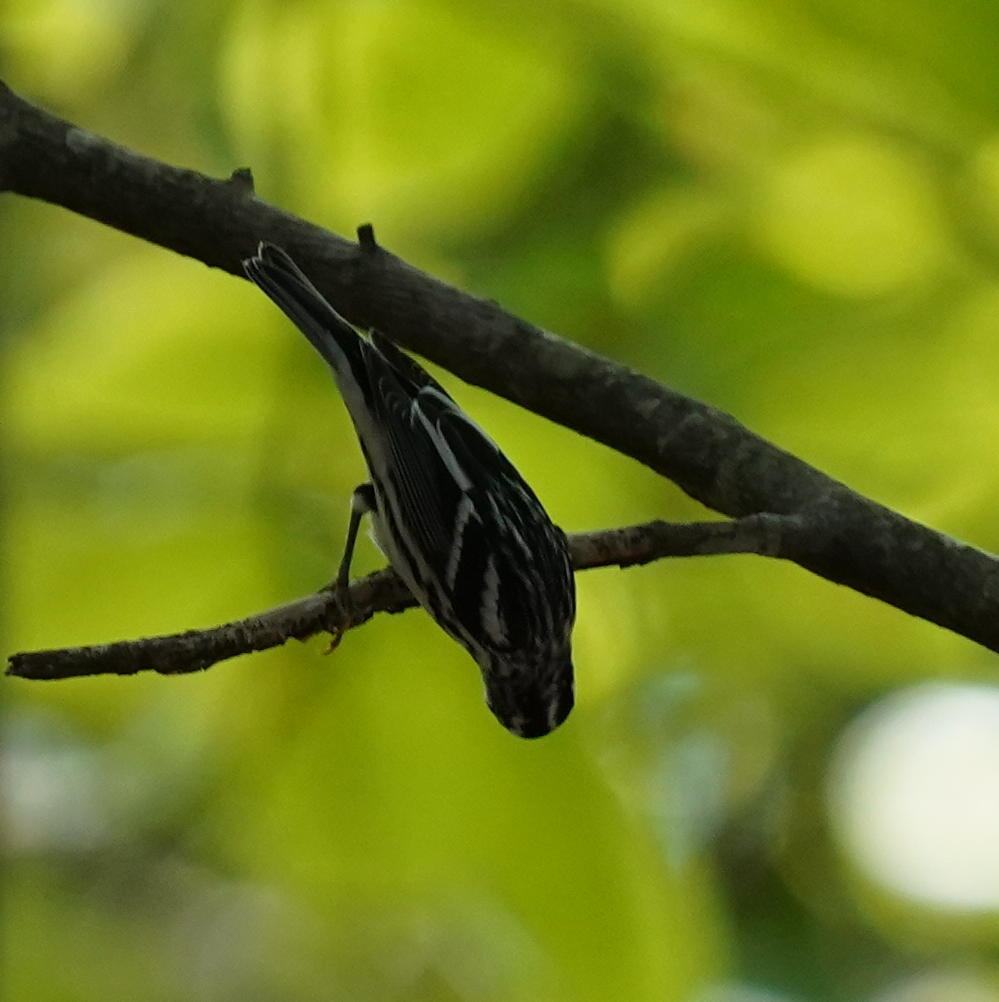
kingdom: Animalia
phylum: Chordata
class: Aves
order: Passeriformes
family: Parulidae
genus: Mniotilta
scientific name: Mniotilta varia
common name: Black-and-white warbler
